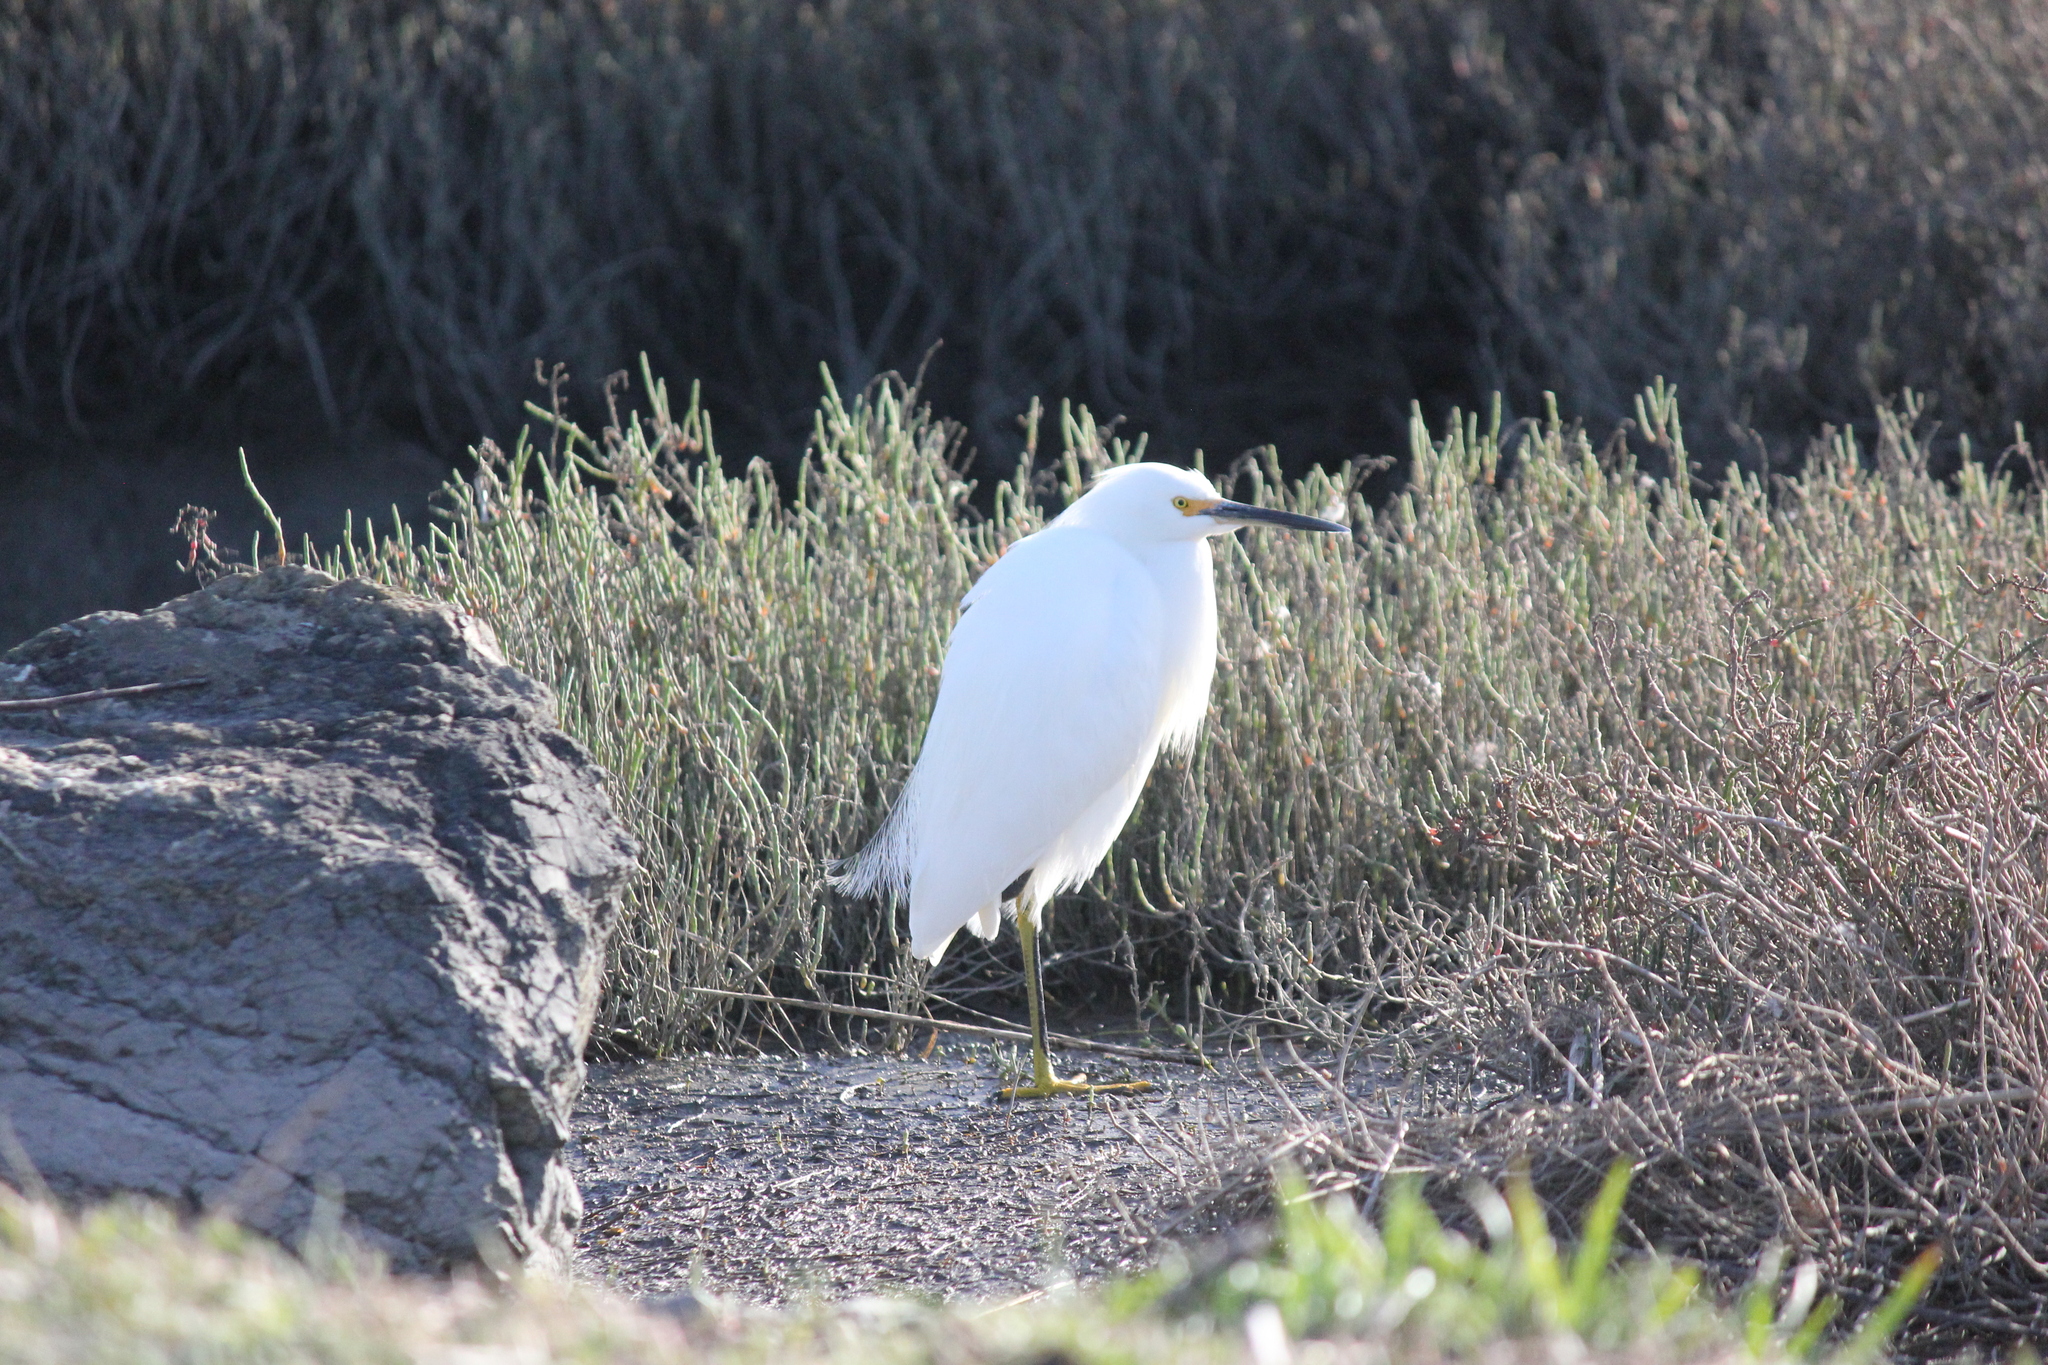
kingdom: Animalia
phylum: Chordata
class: Aves
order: Pelecaniformes
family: Ardeidae
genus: Egretta
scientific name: Egretta thula
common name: Snowy egret
